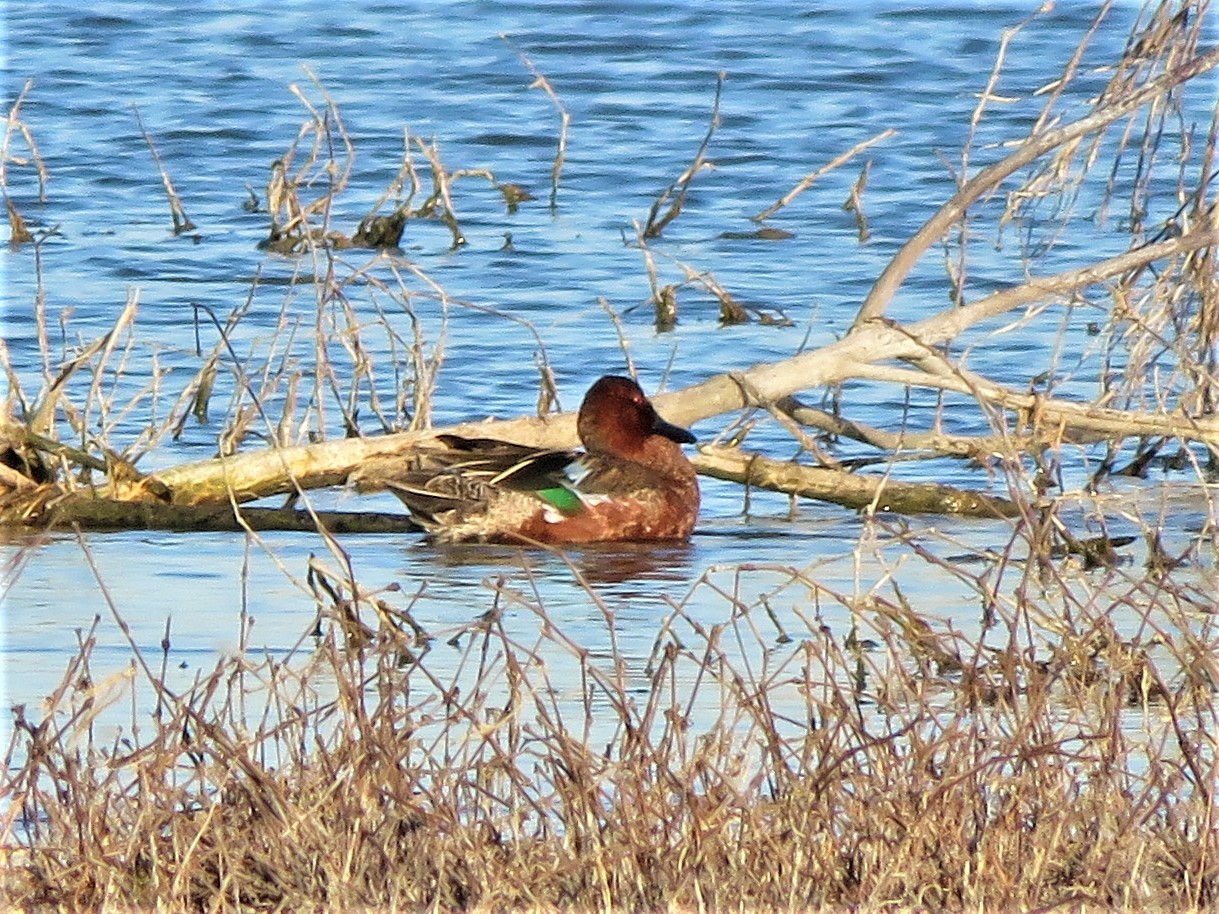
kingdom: Animalia
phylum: Chordata
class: Aves
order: Anseriformes
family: Anatidae
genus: Spatula
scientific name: Spatula cyanoptera
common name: Cinnamon teal
